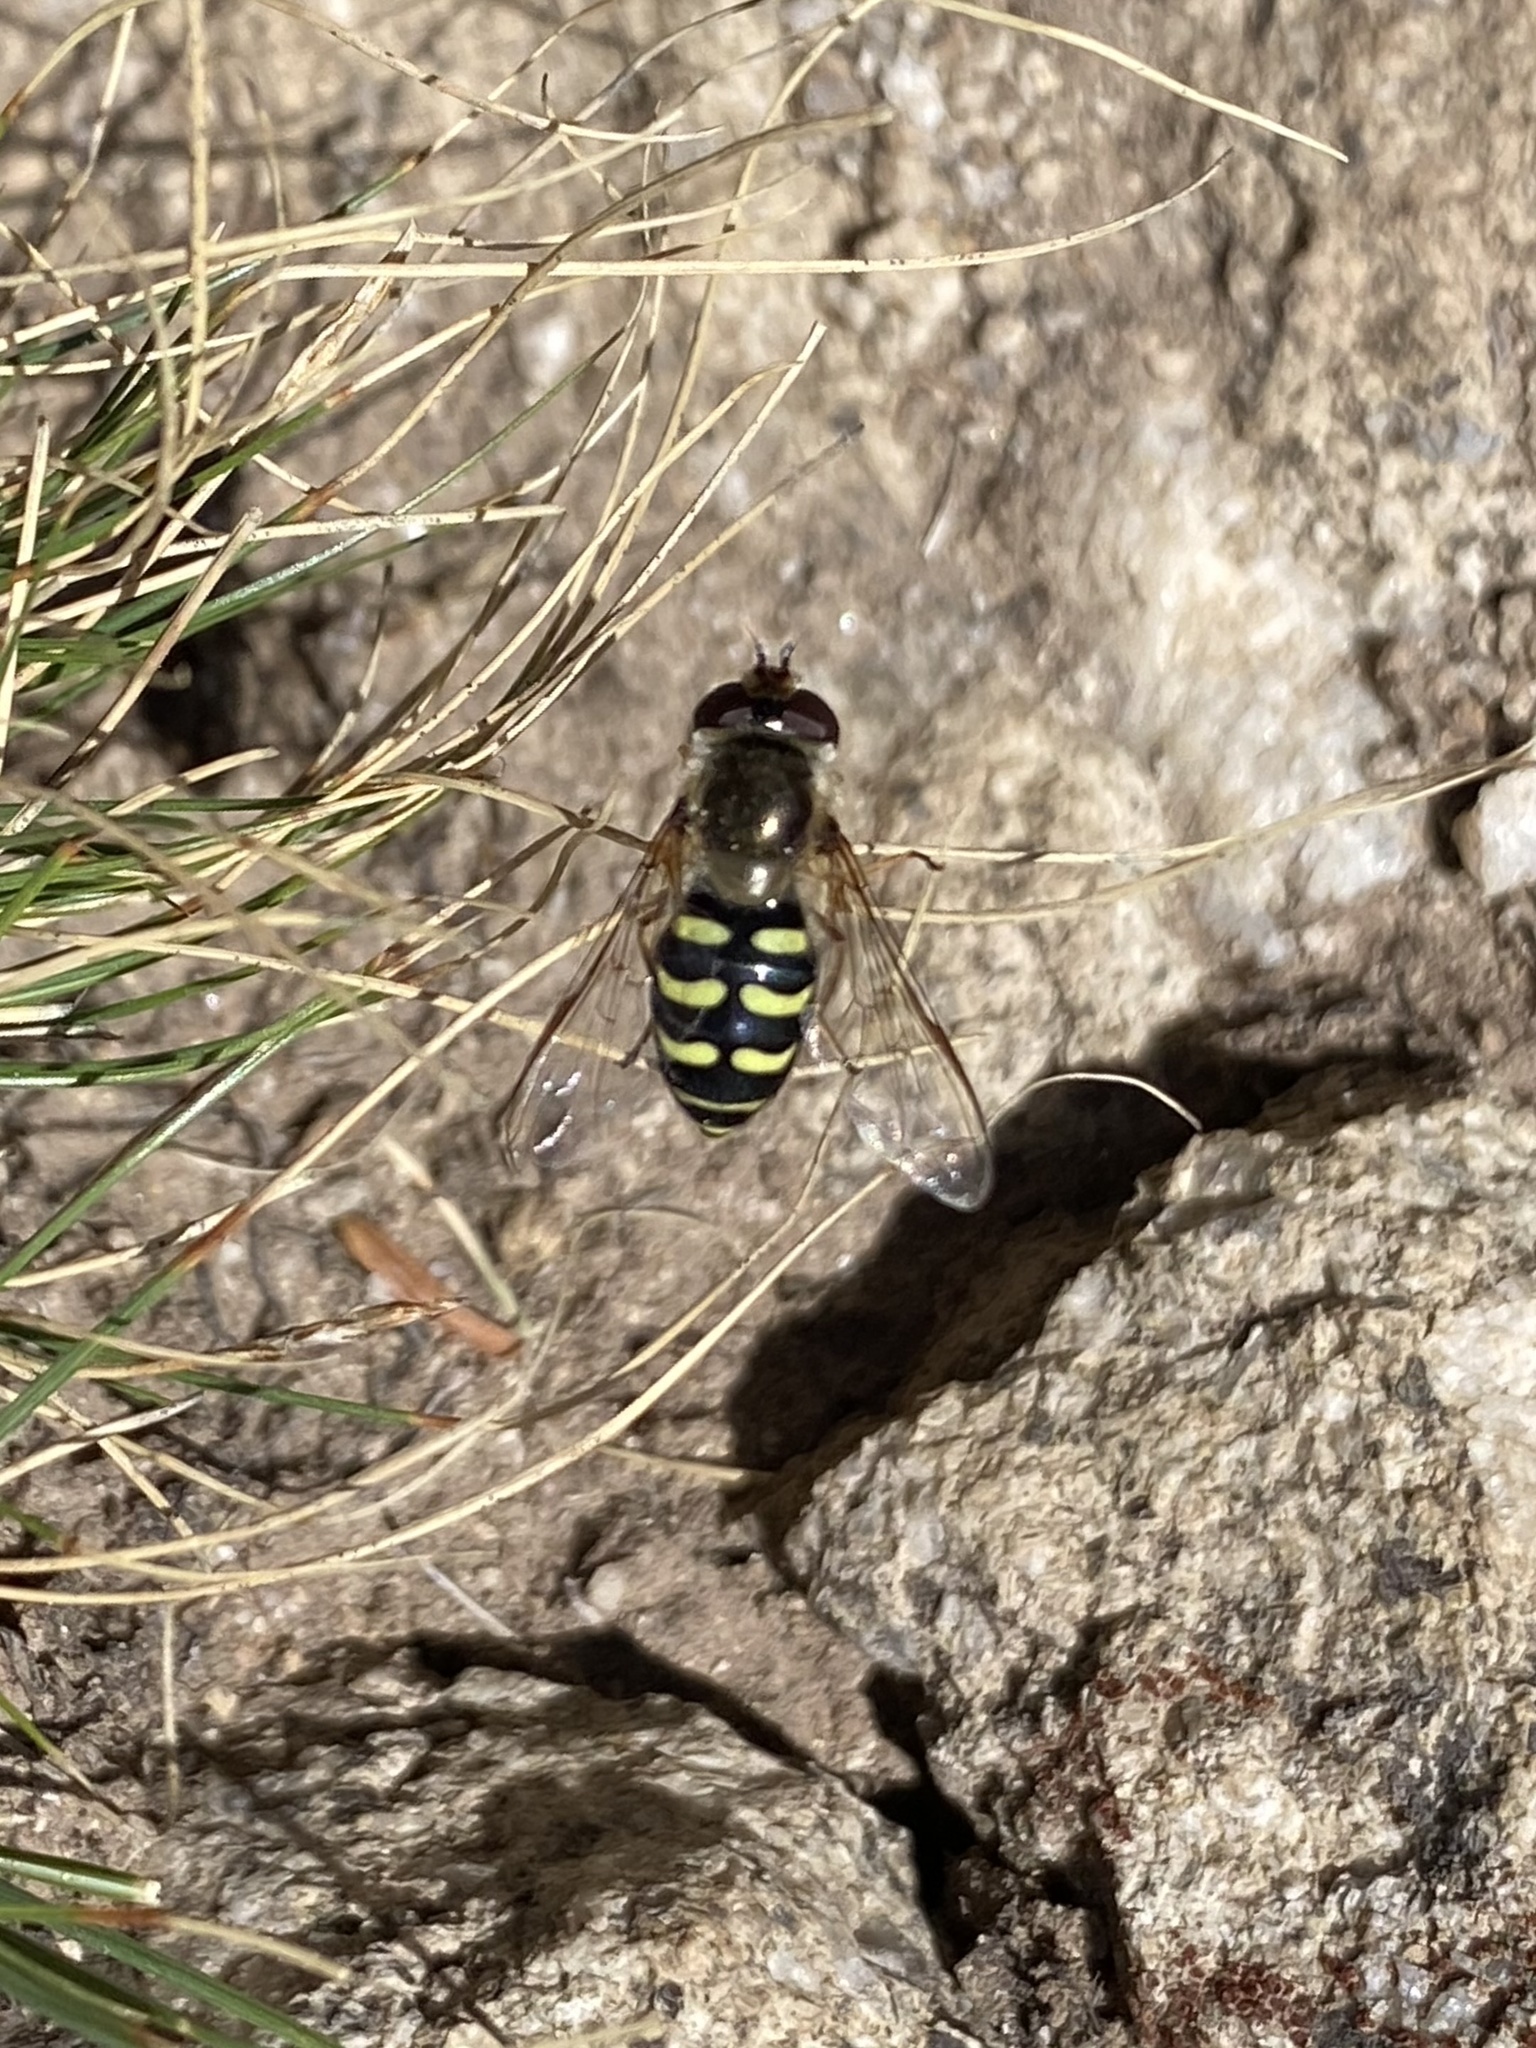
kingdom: Animalia
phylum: Arthropoda
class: Insecta
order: Diptera
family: Syrphidae
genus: Lapposyrphus
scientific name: Lapposyrphus lapponicus
